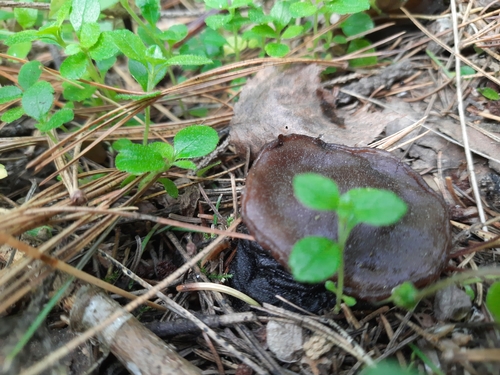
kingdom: Fungi
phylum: Ascomycota
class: Pezizomycetes
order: Pezizales
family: Sarcosomataceae
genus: Sarcosoma
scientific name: Sarcosoma globosum
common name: Charred-pancake cup
